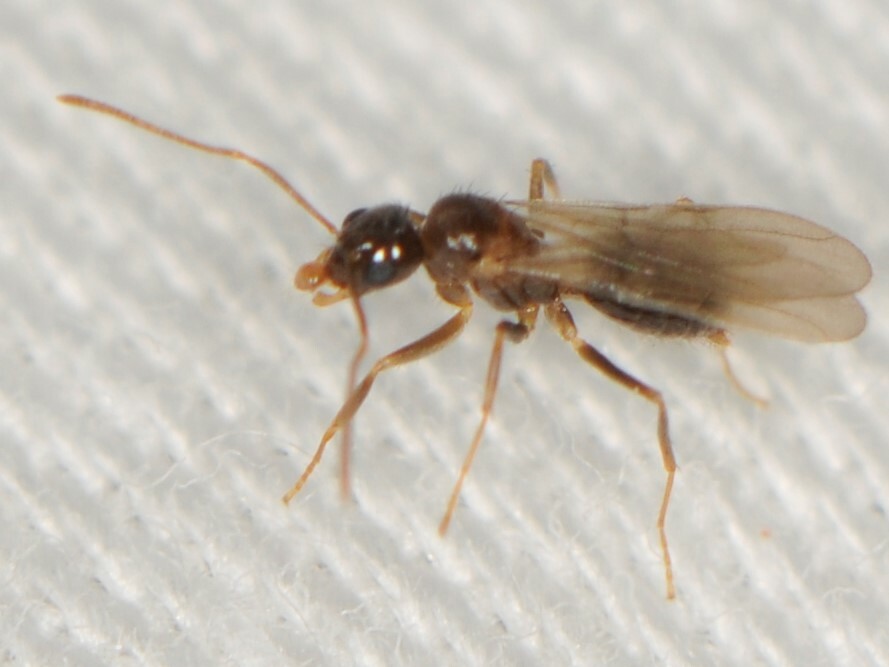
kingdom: Animalia
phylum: Arthropoda
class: Insecta
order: Hymenoptera
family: Formicidae
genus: Nylanderia
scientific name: Nylanderia
